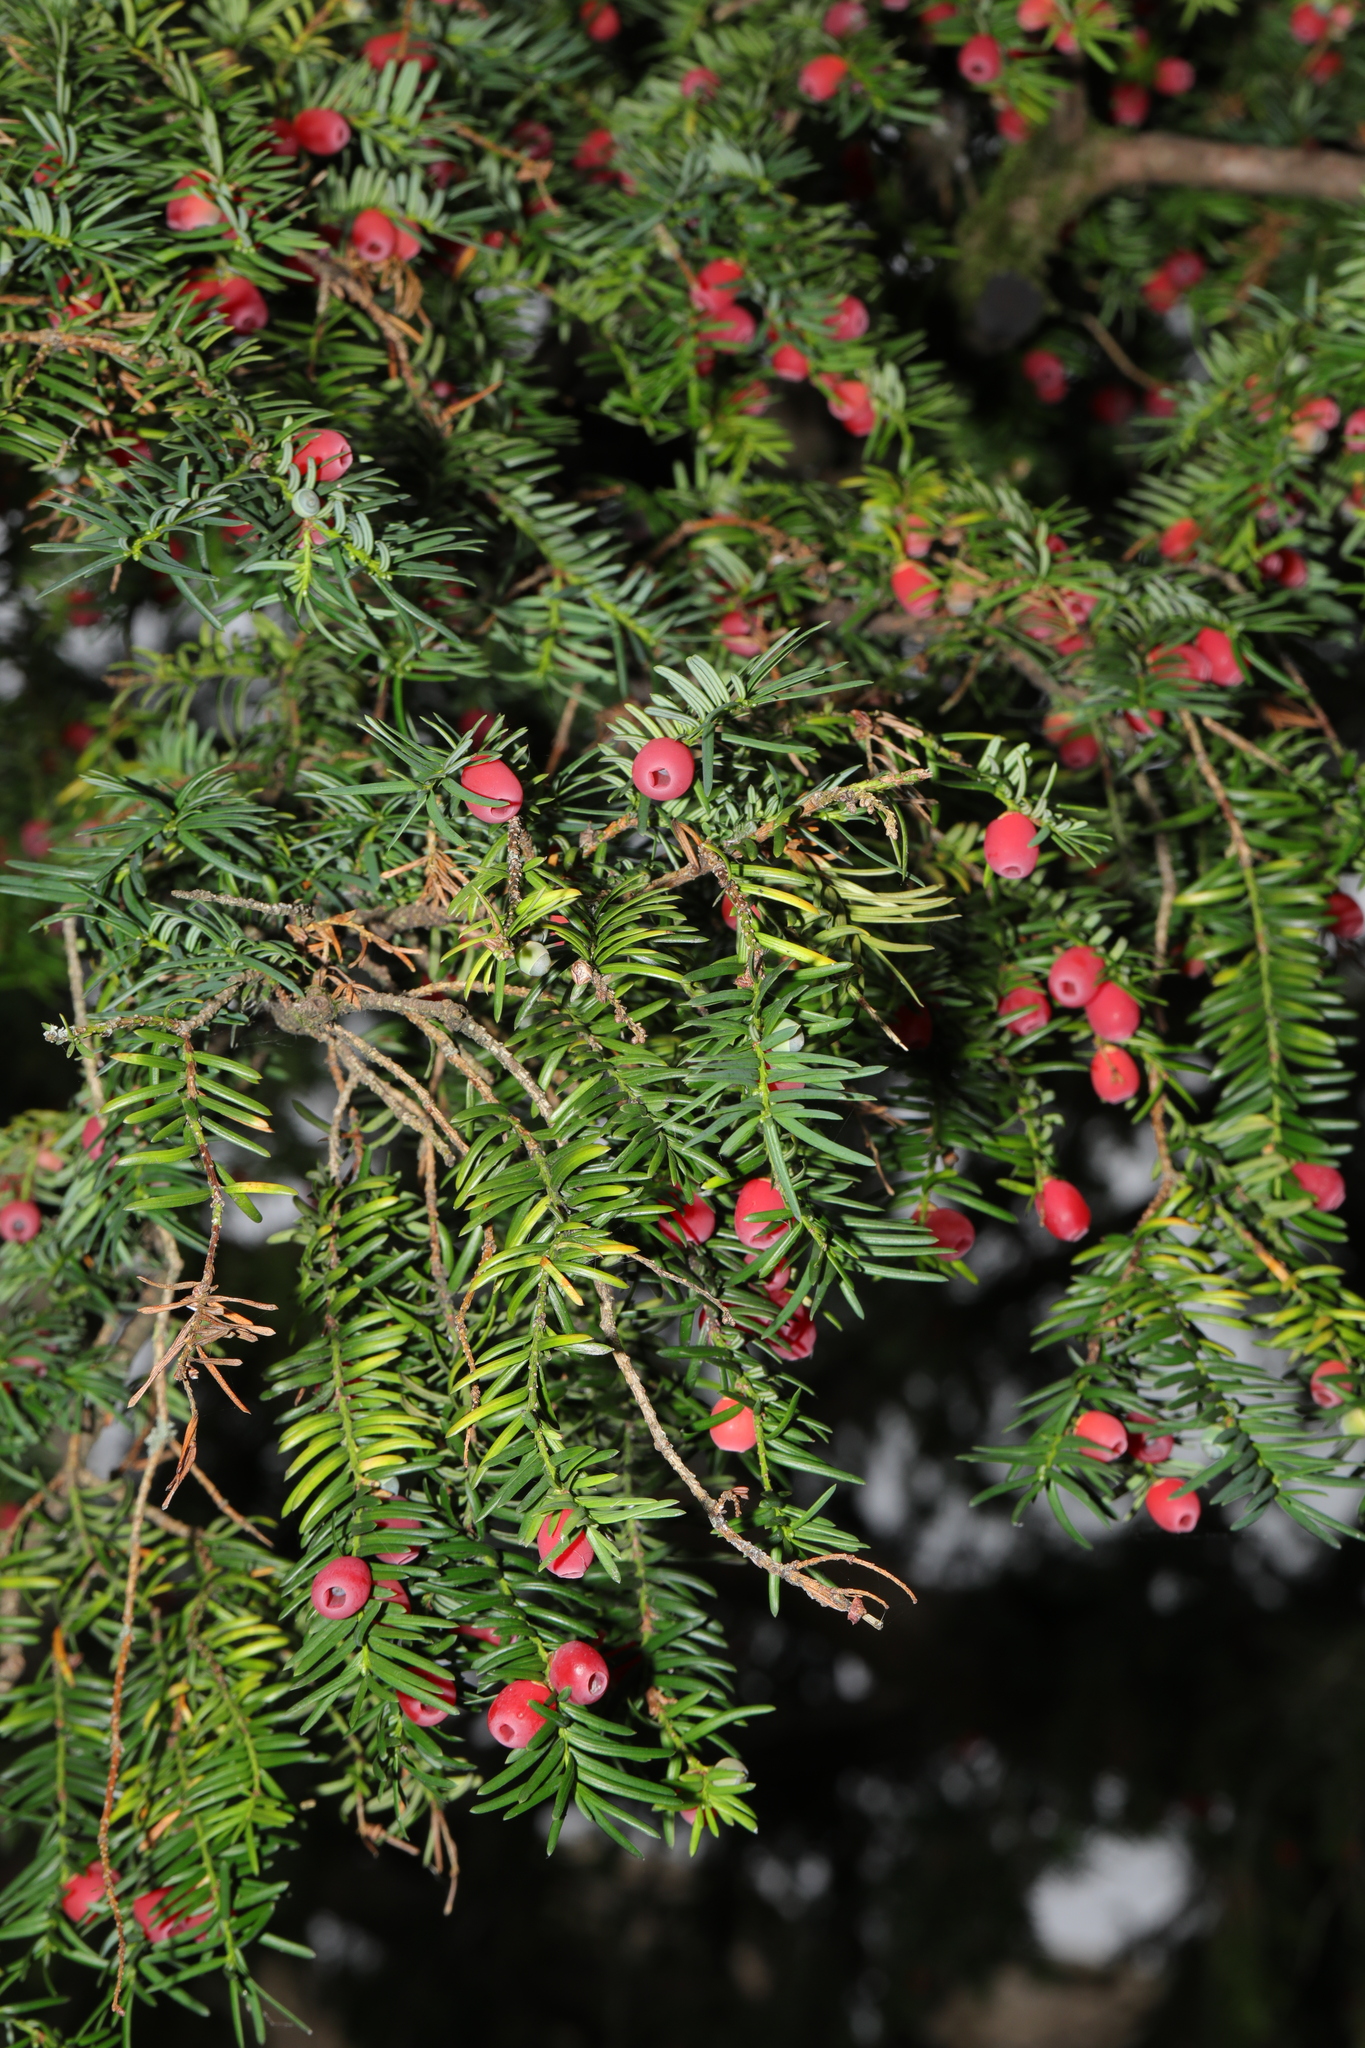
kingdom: Plantae
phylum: Tracheophyta
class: Pinopsida
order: Pinales
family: Taxaceae
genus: Taxus
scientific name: Taxus baccata
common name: Yew
